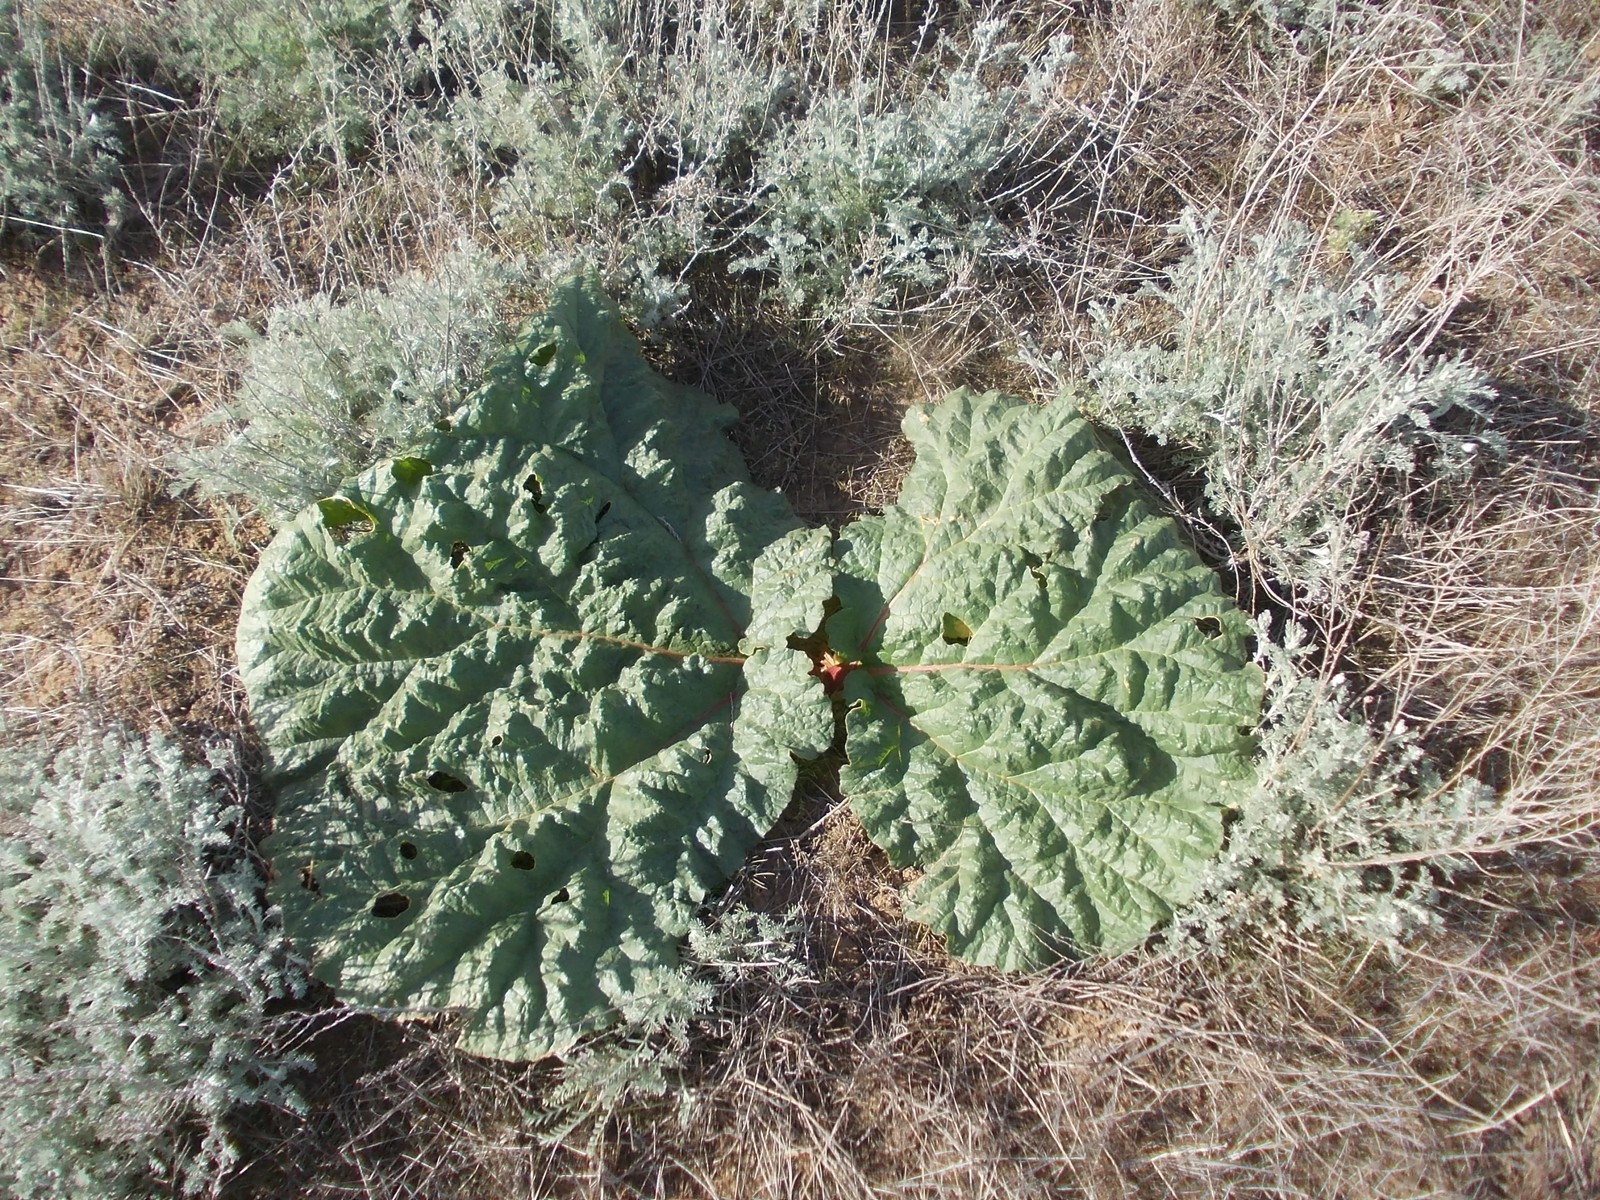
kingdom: Plantae
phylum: Tracheophyta
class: Magnoliopsida
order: Caryophyllales
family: Polygonaceae
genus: Rheum
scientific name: Rheum tataricum
